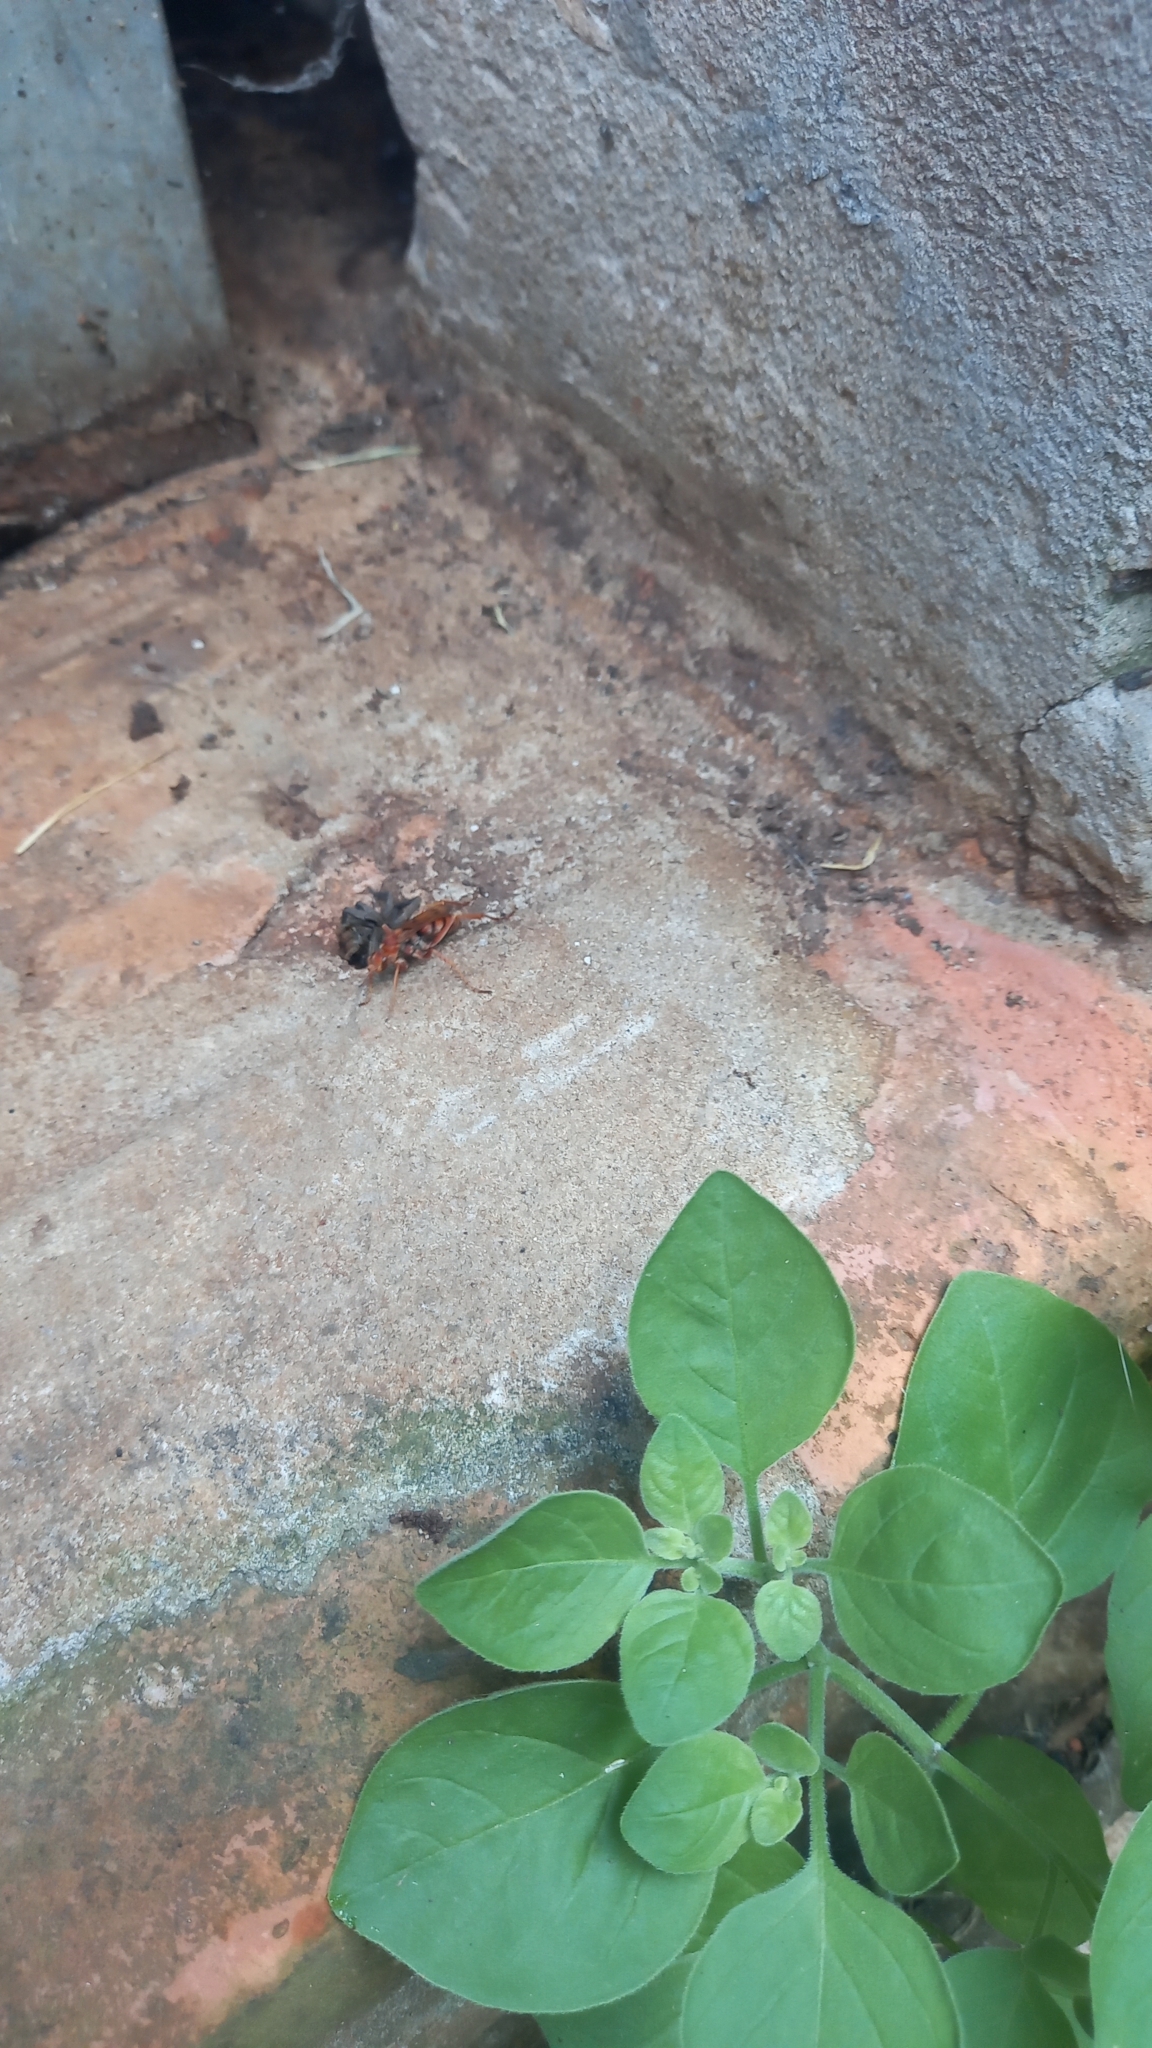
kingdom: Animalia
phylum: Arthropoda
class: Insecta
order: Hymenoptera
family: Pompilidae
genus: Tachypompilus
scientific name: Tachypompilus mendozae
